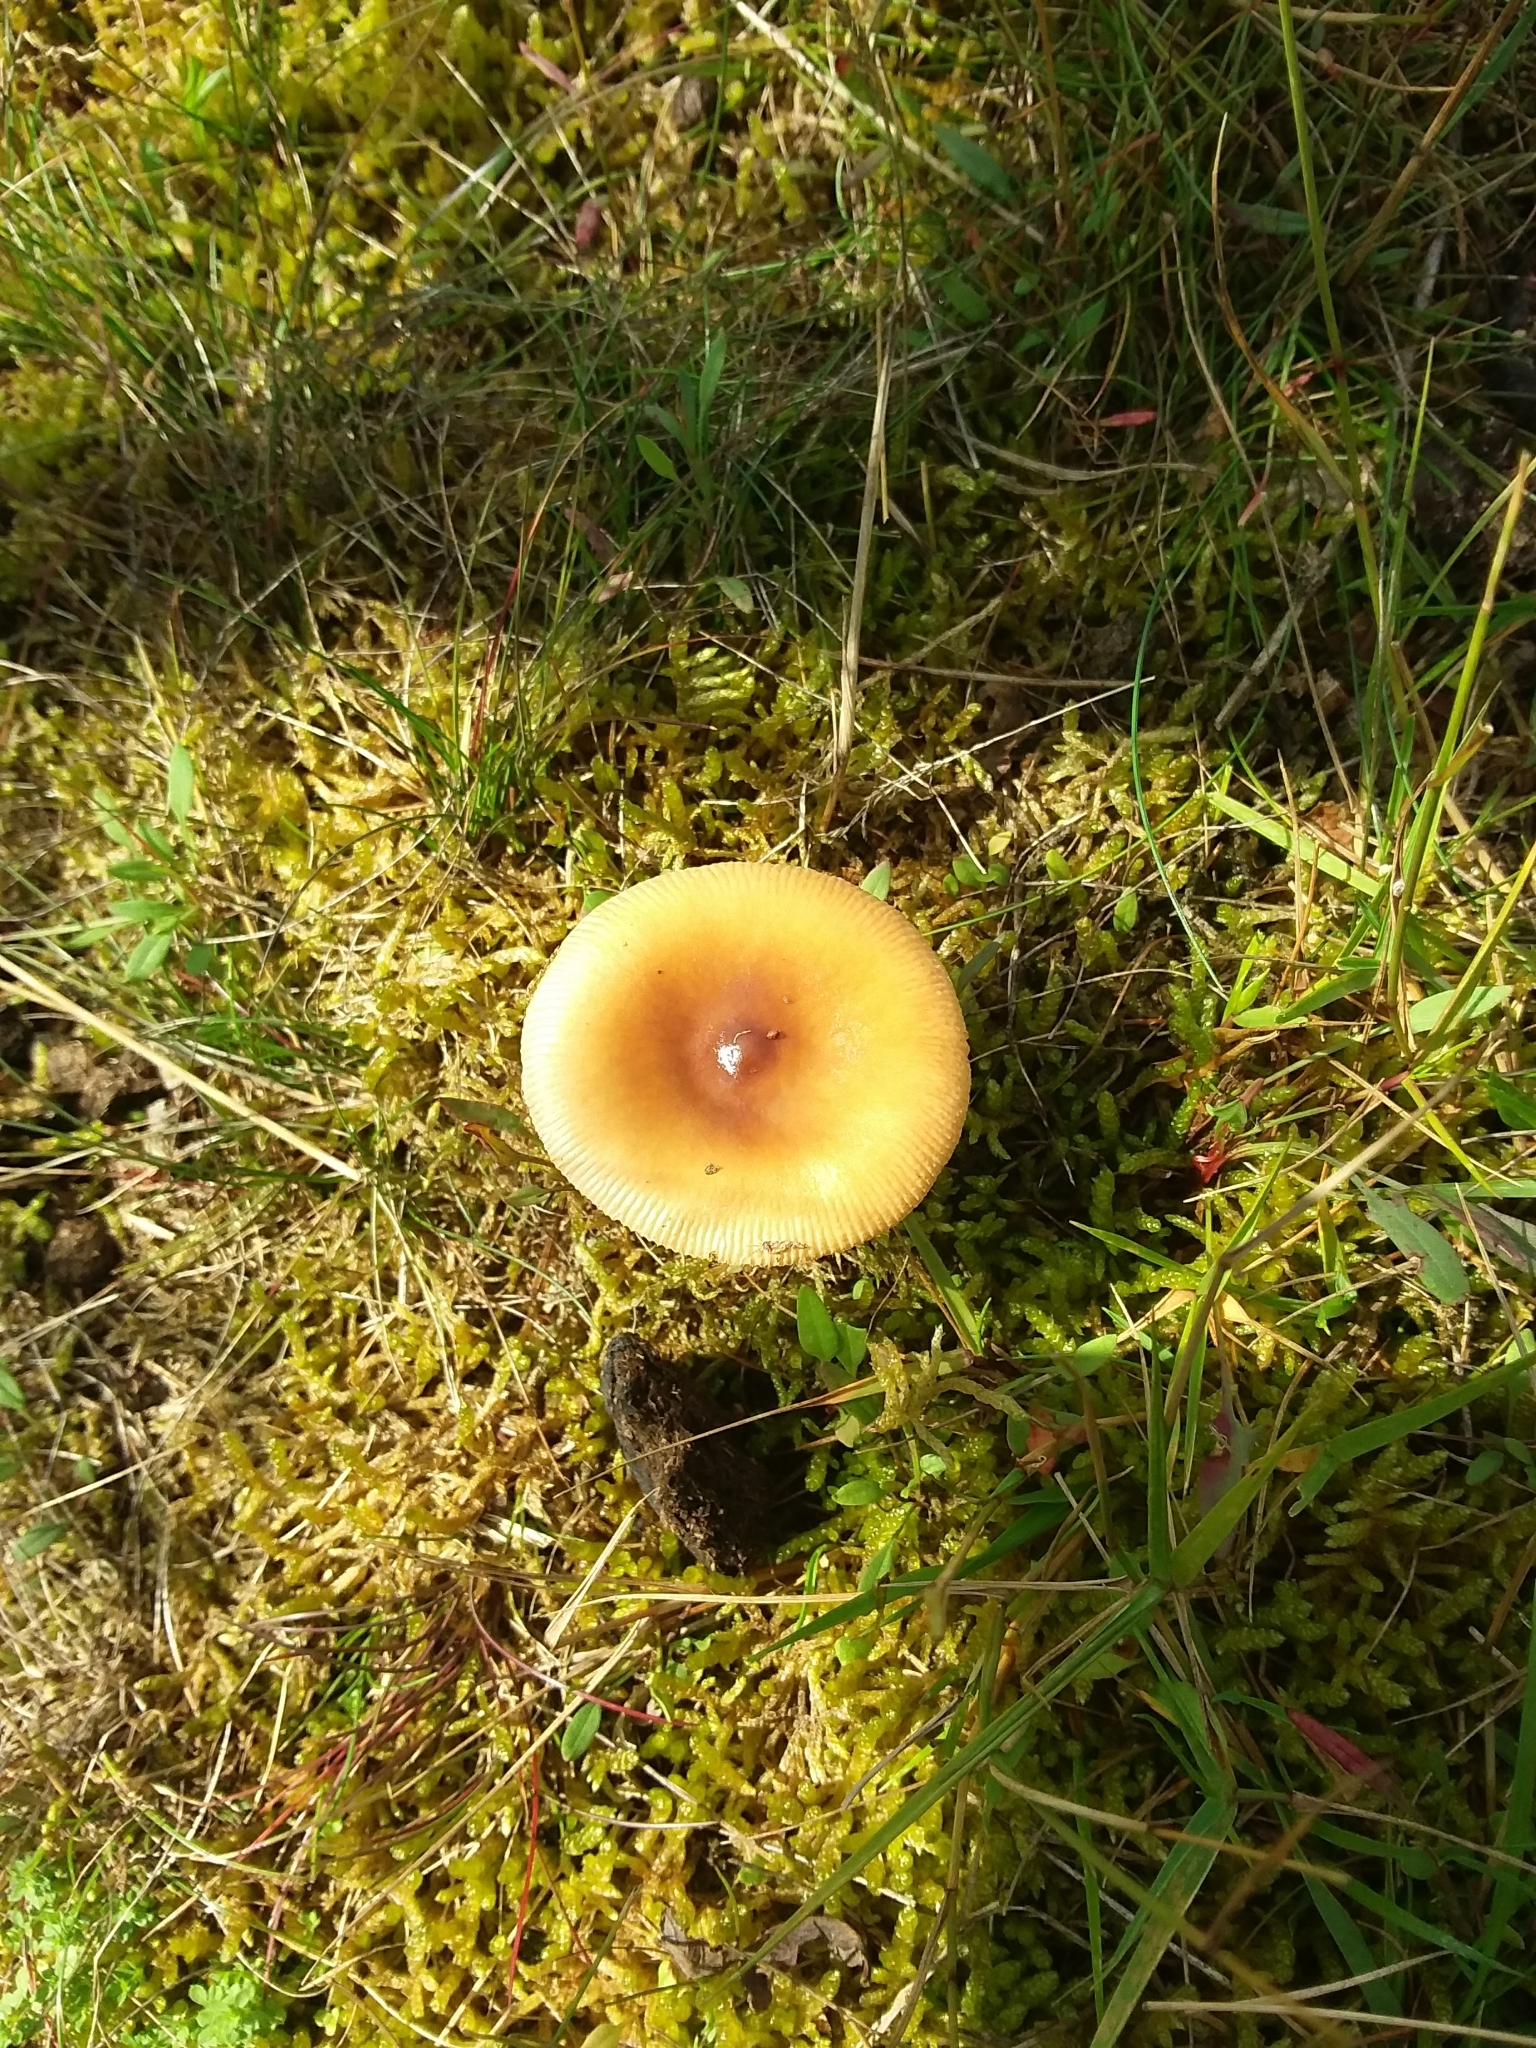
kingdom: Fungi
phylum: Basidiomycota
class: Agaricomycetes
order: Agaricales
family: Amanitaceae
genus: Amanita
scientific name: Amanita fulva
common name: Tawny grisette
